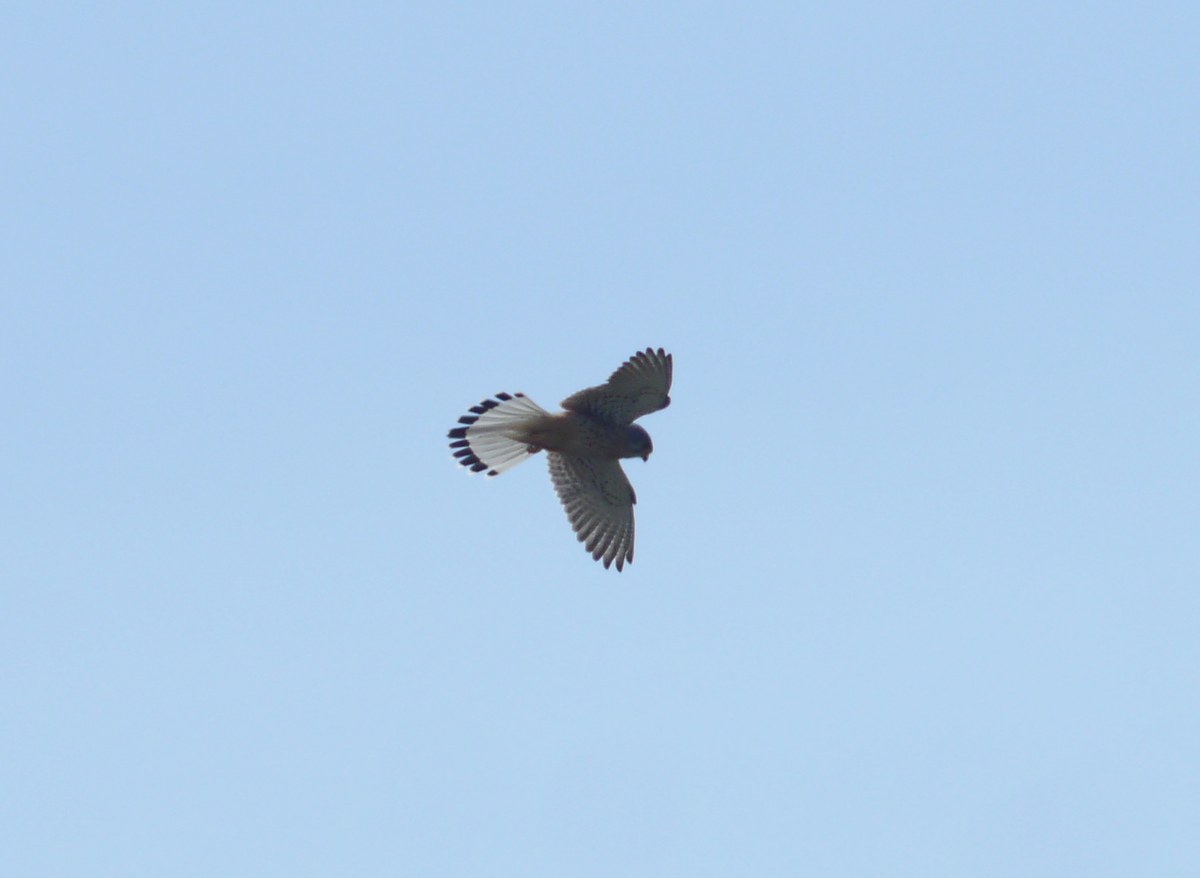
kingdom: Animalia
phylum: Chordata
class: Aves
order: Falconiformes
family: Falconidae
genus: Falco
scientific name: Falco tinnunculus
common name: Common kestrel
